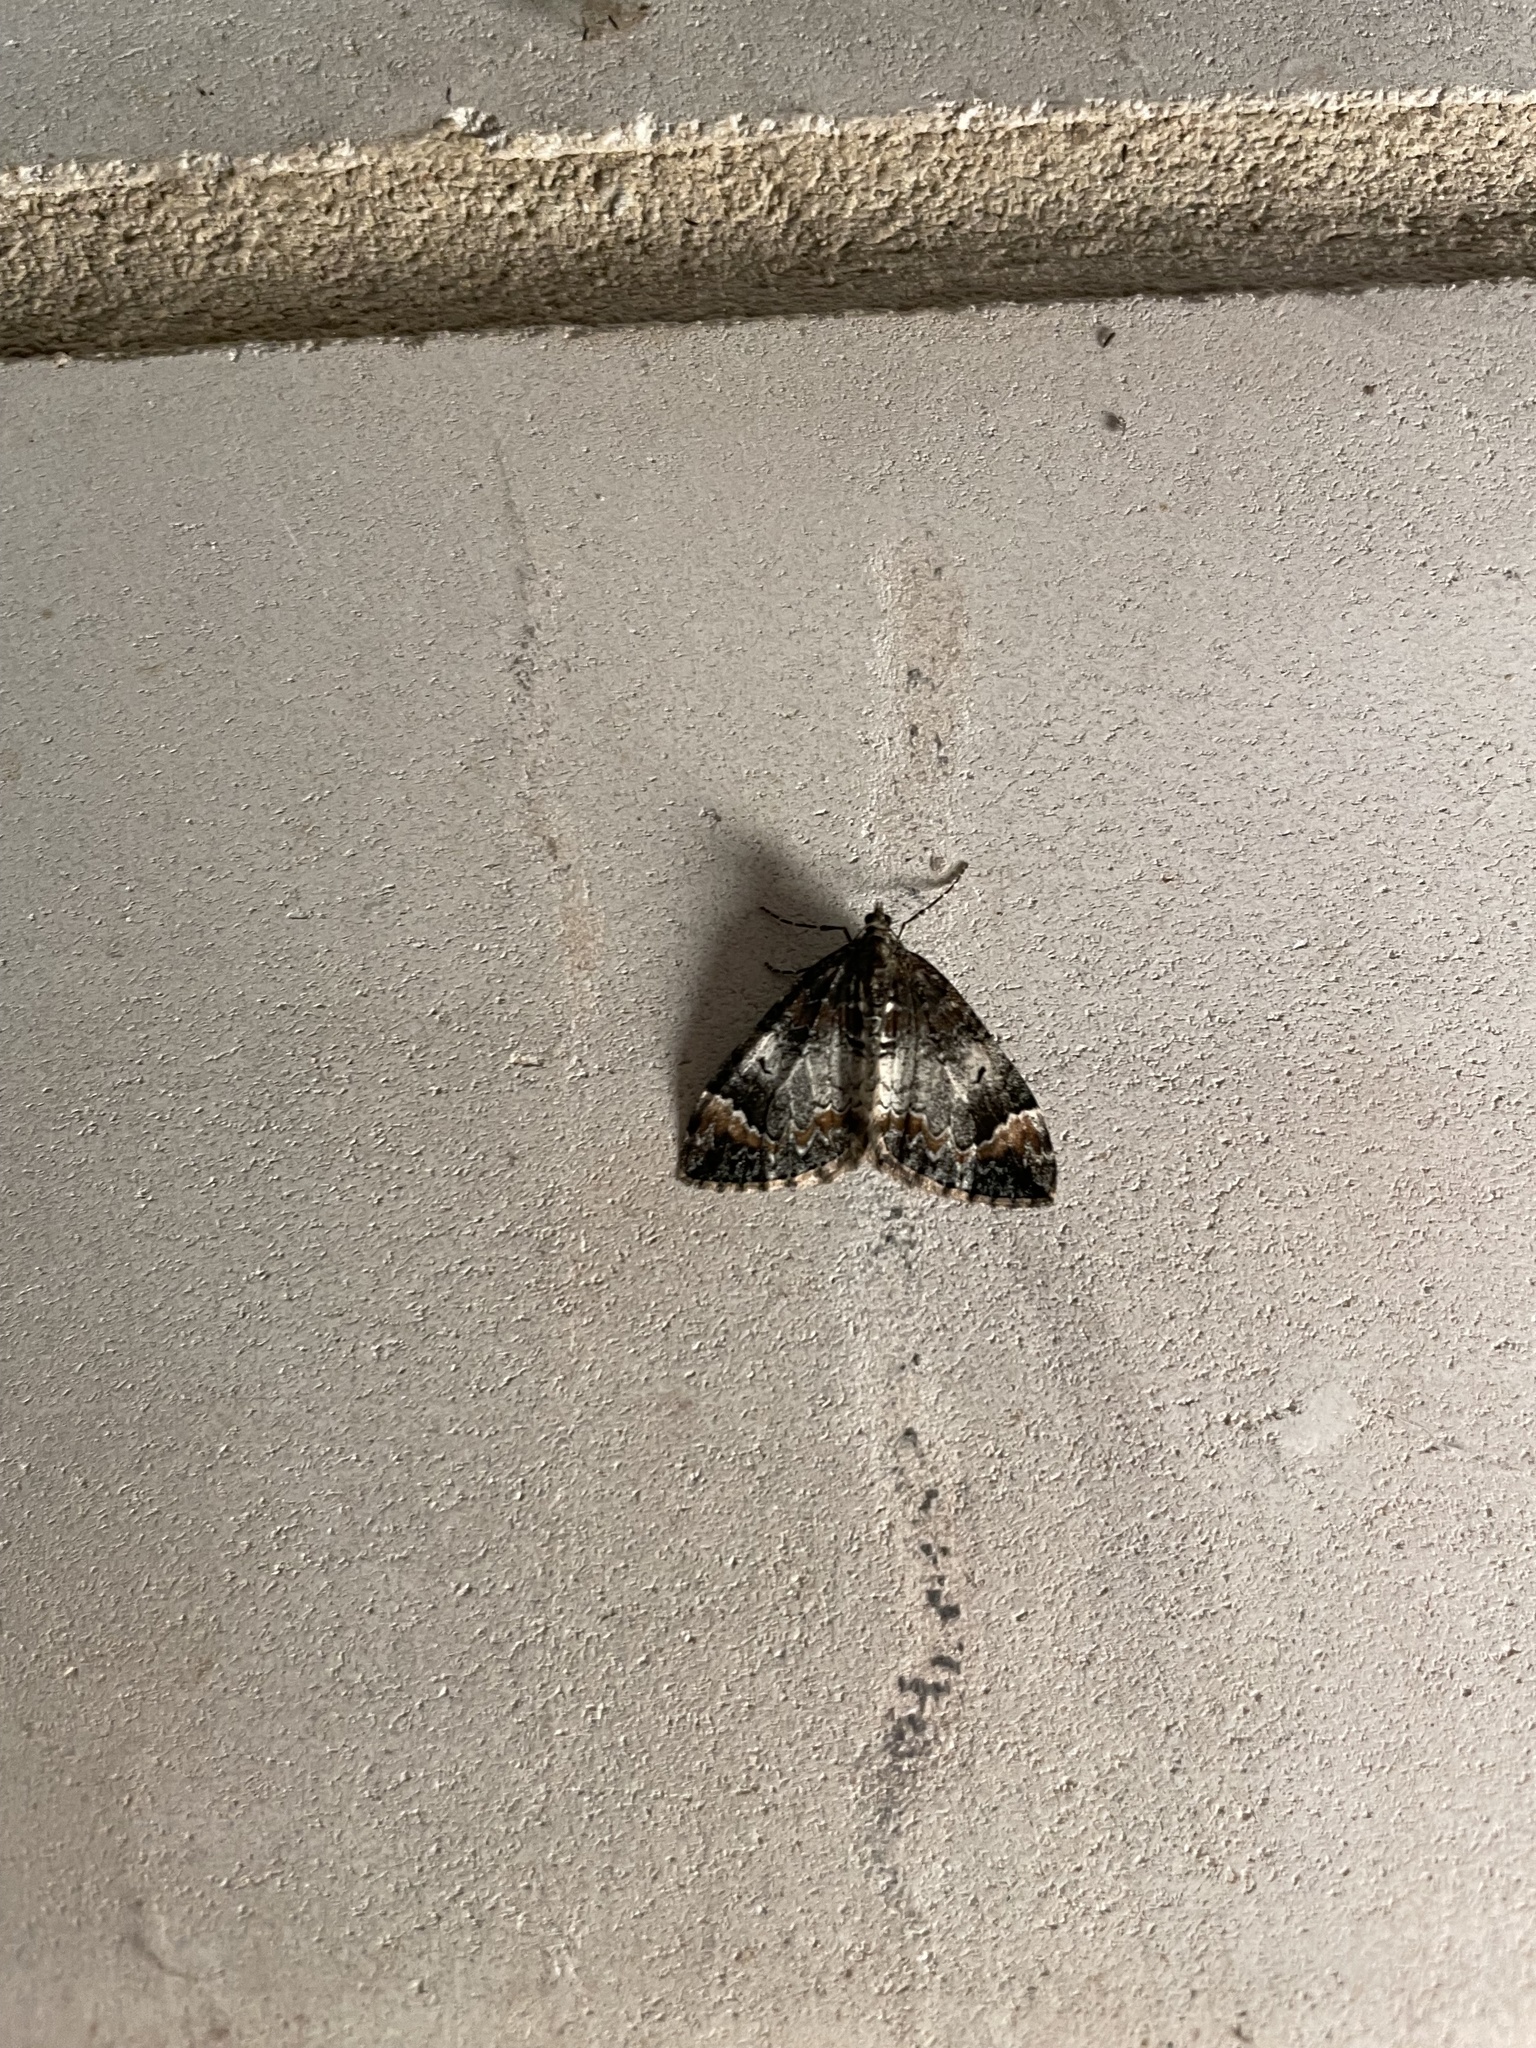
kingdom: Animalia
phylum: Arthropoda
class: Insecta
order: Lepidoptera
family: Geometridae
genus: Dysstroma
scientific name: Dysstroma truncata
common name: Common marbled carpet
